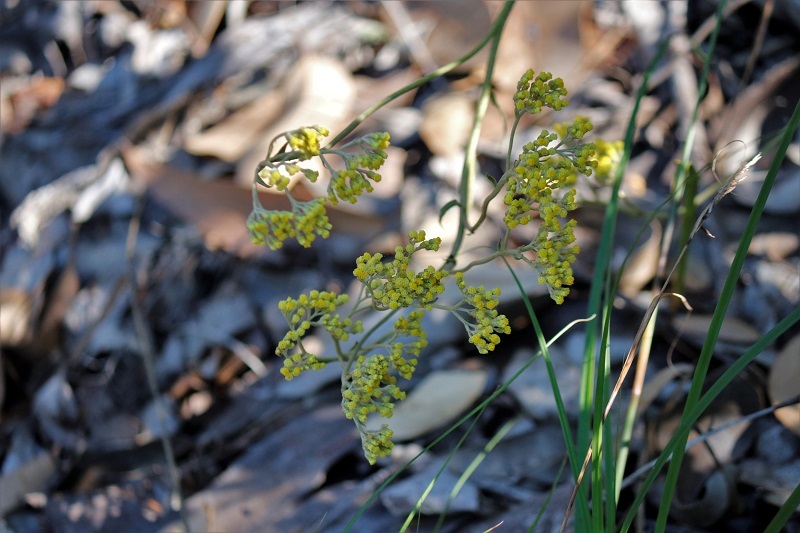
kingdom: Plantae
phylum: Tracheophyta
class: Magnoliopsida
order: Asterales
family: Asteraceae
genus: Helichrysum
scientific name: Helichrysum nudifolium
